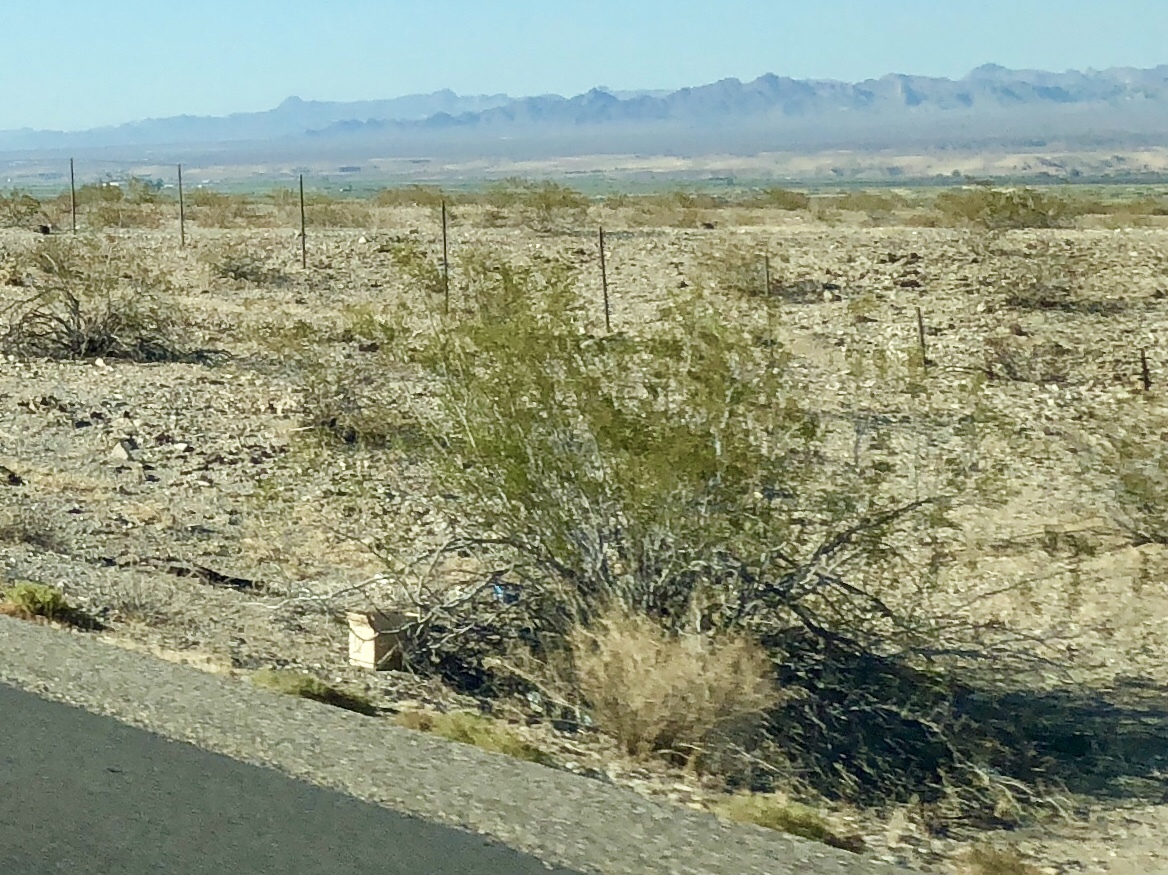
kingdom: Plantae
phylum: Tracheophyta
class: Magnoliopsida
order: Zygophyllales
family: Zygophyllaceae
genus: Larrea
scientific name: Larrea tridentata
